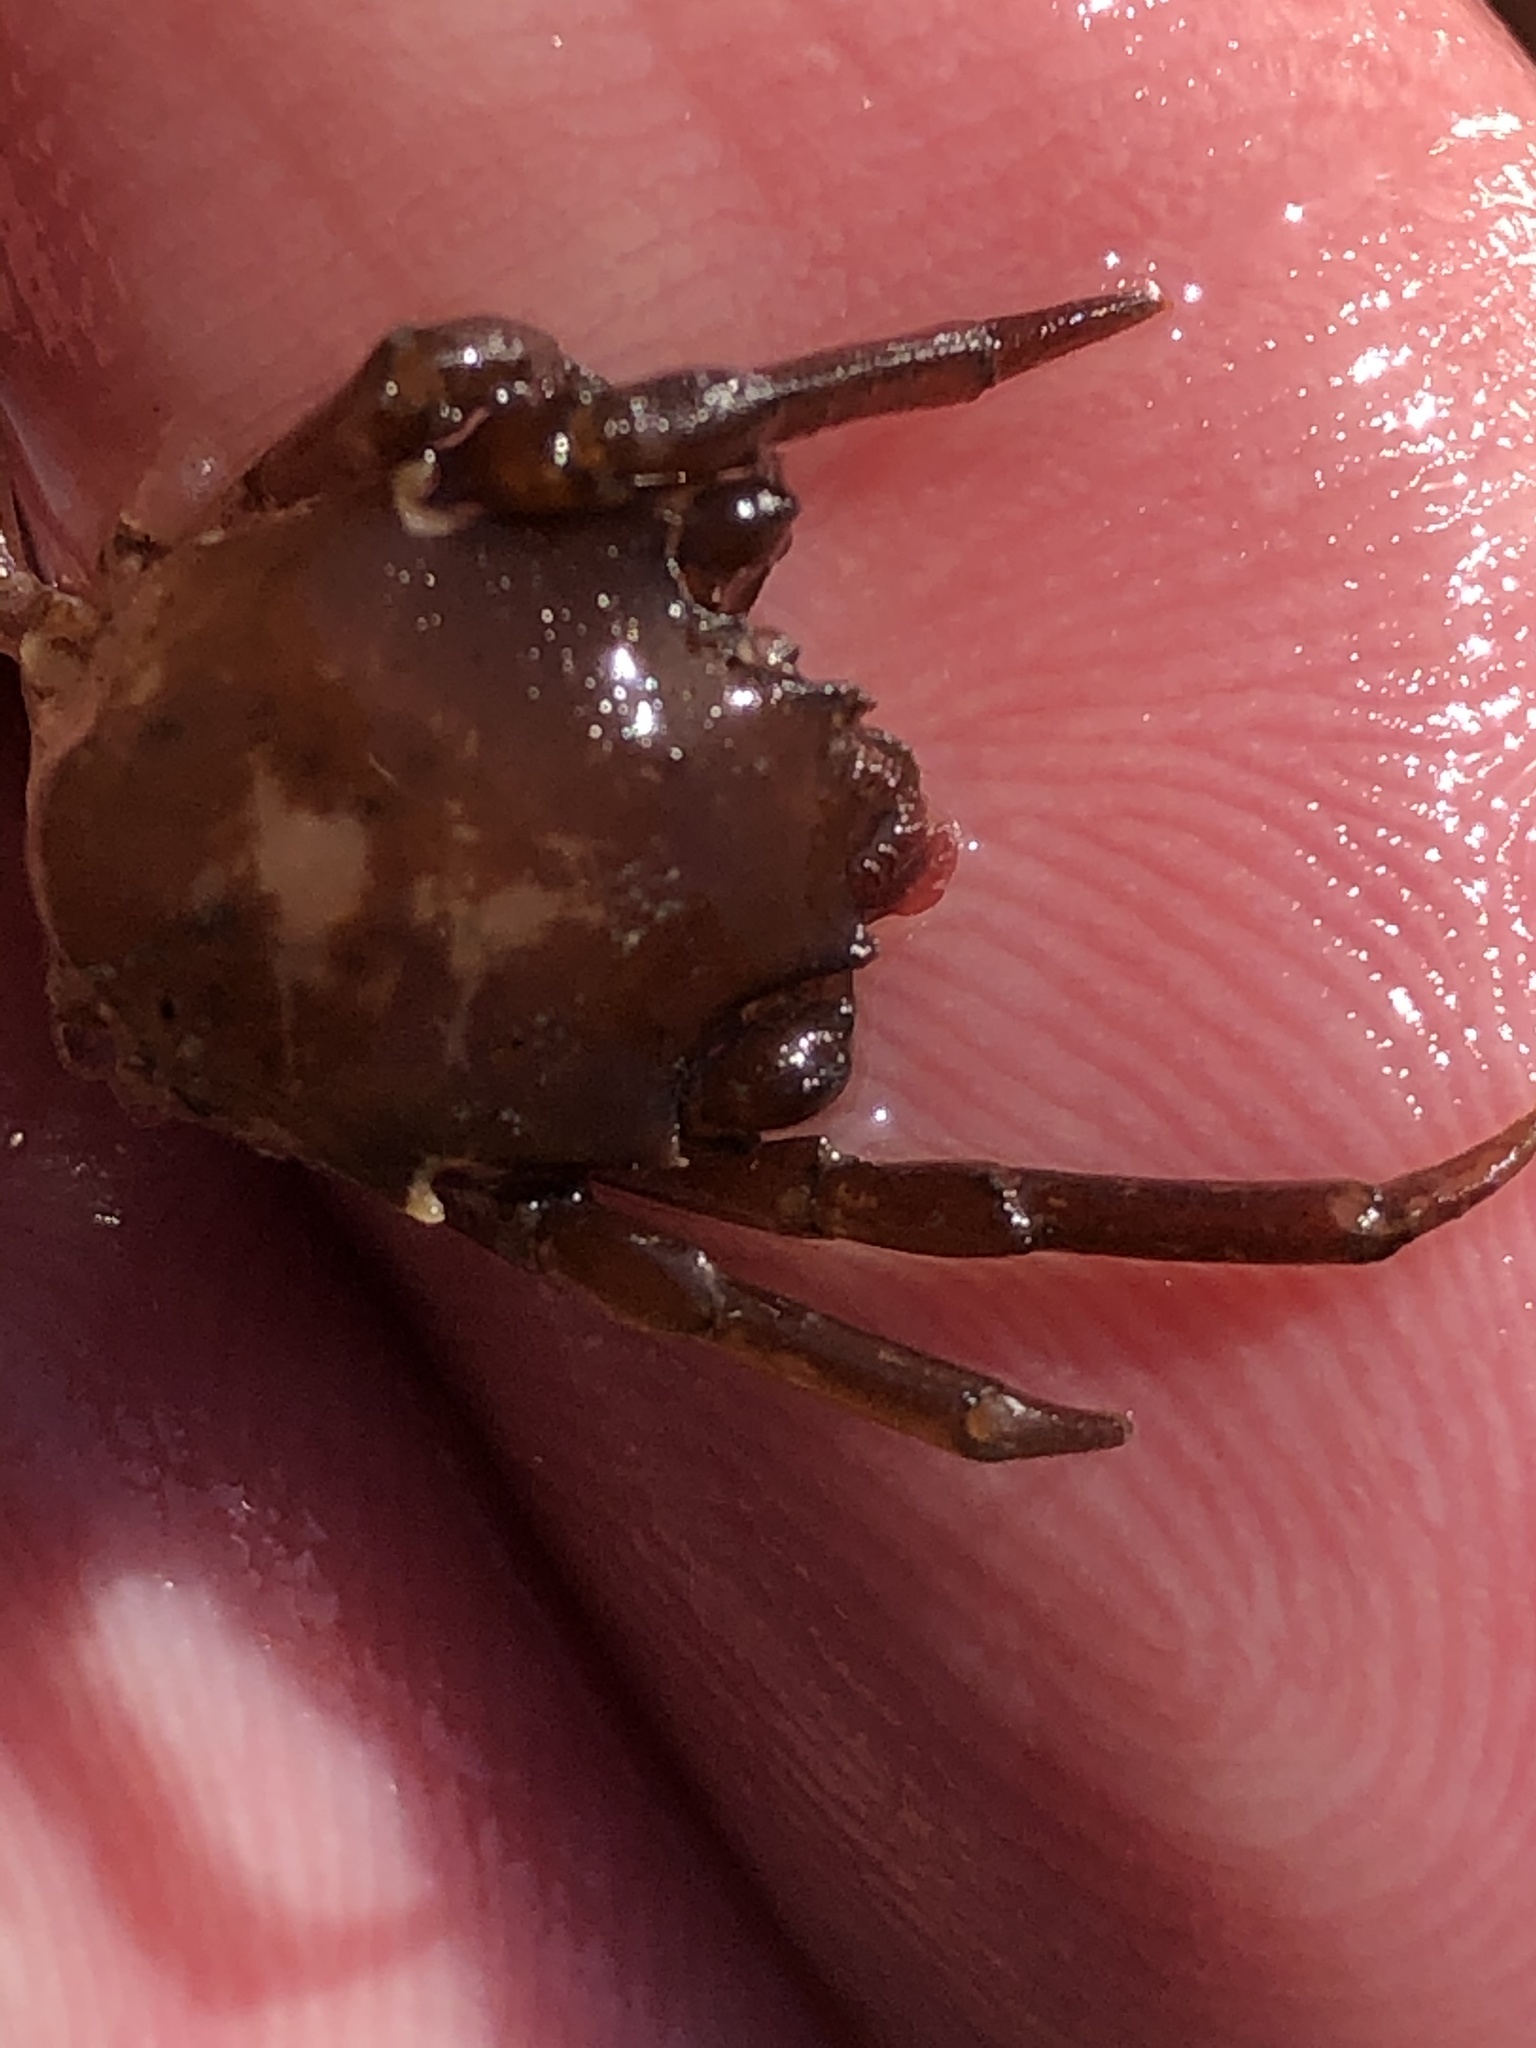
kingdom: Animalia
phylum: Arthropoda
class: Malacostraca
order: Decapoda
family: Epialtidae
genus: Pugettia
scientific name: Pugettia producta
